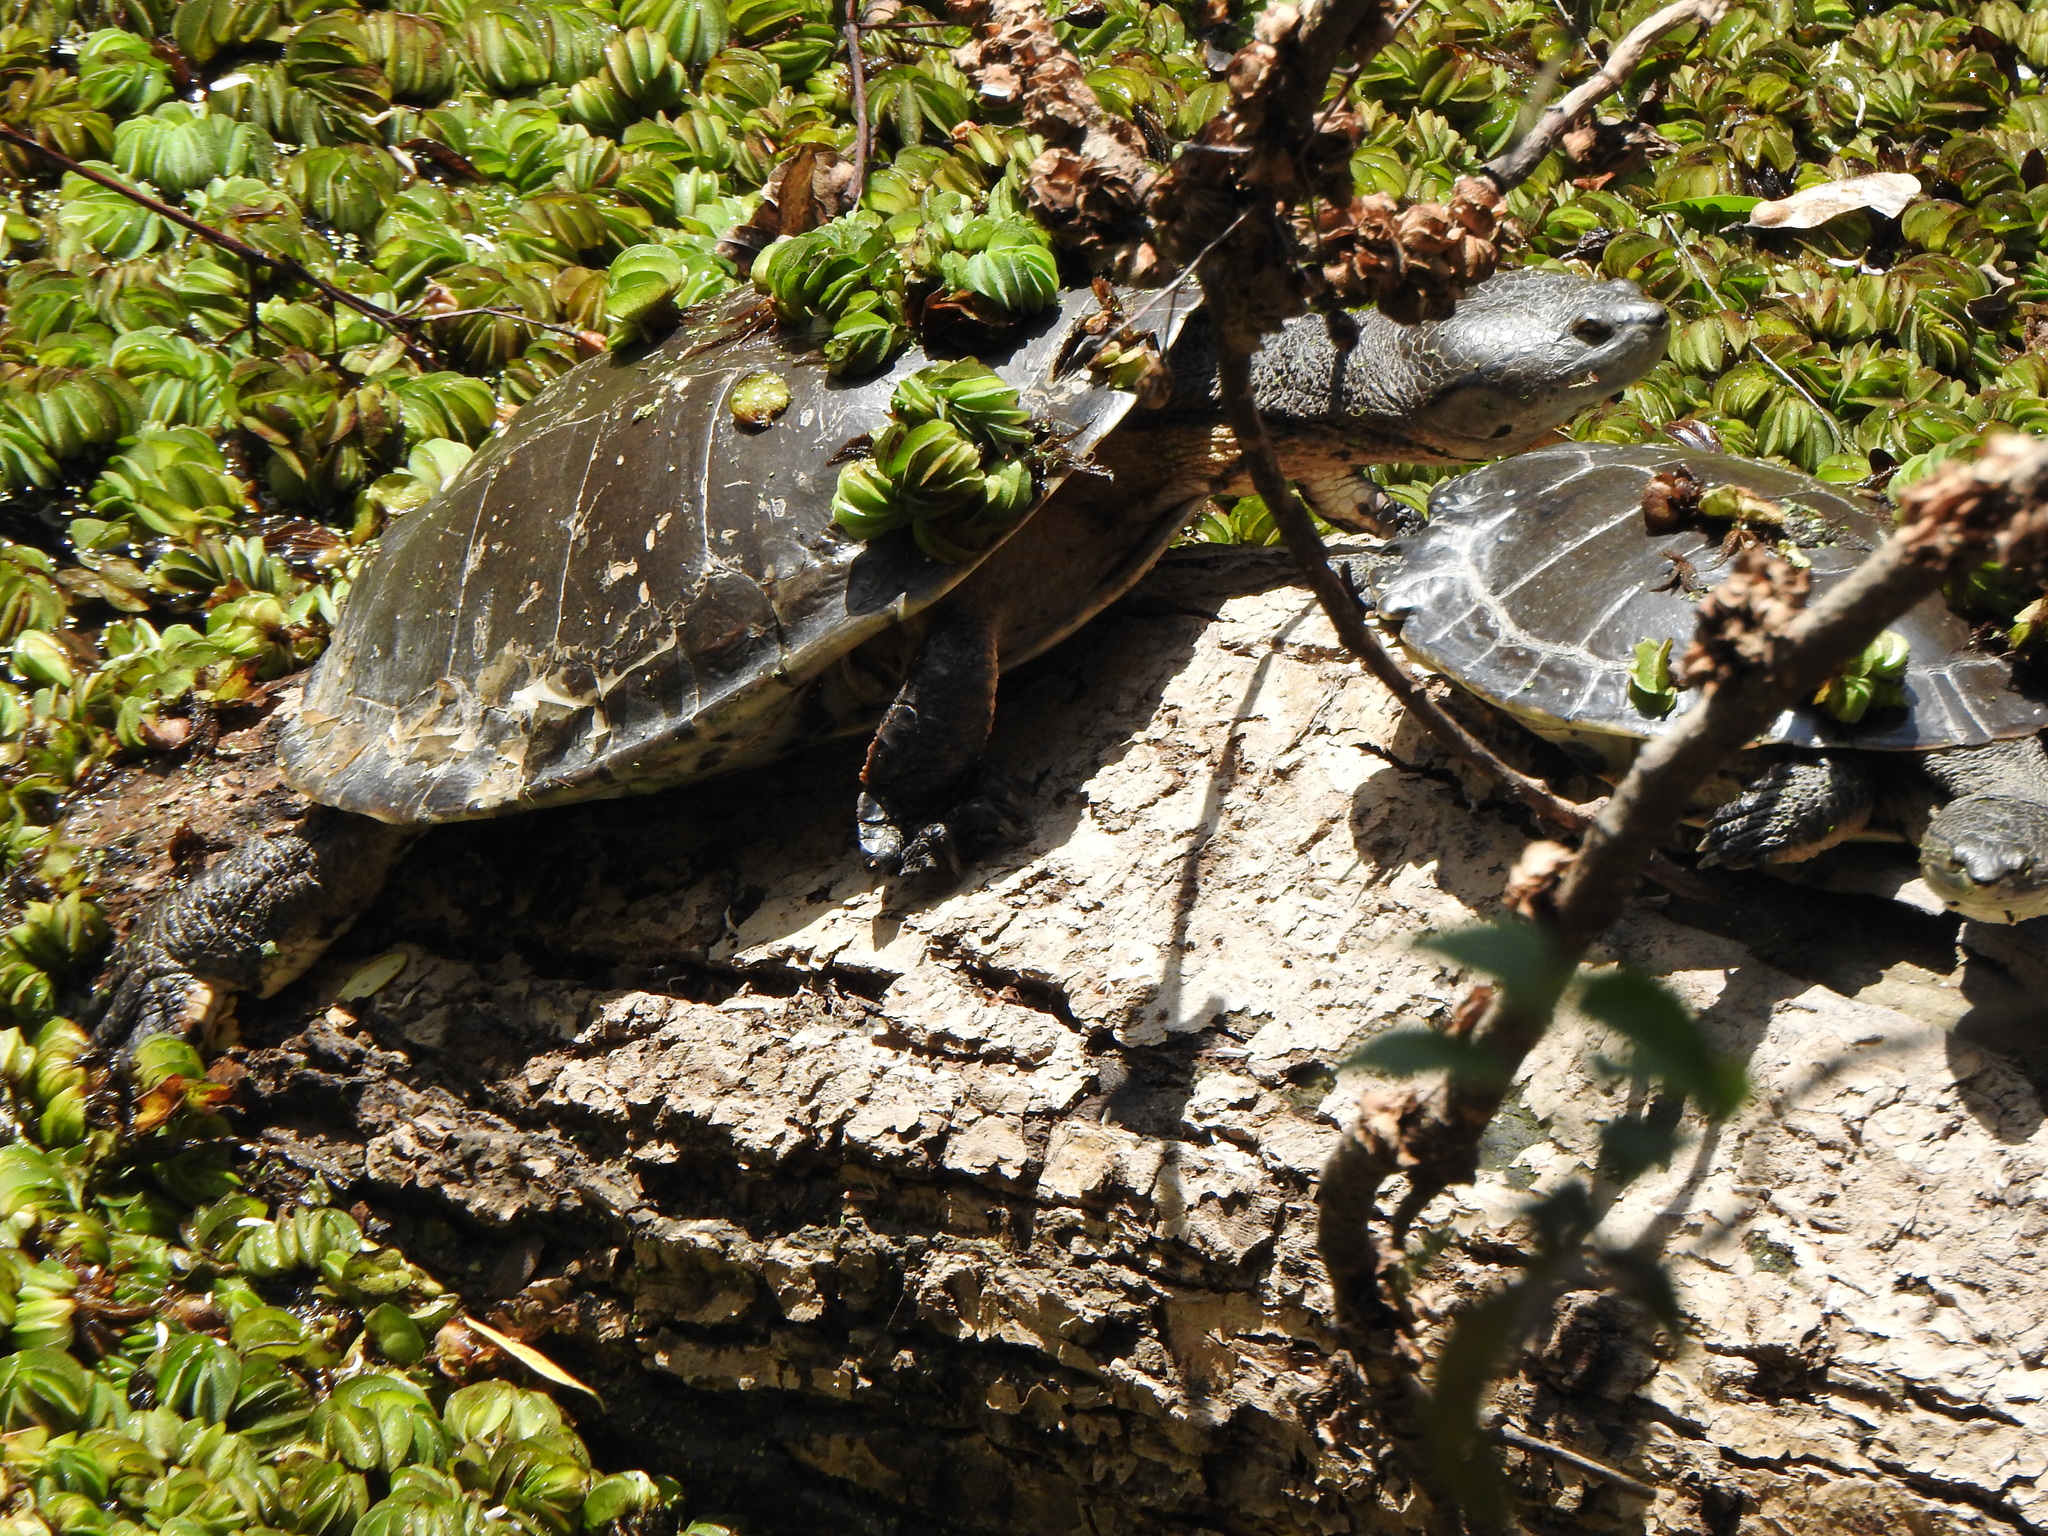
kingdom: Animalia
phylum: Chordata
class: Testudines
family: Chelidae
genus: Phrynops
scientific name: Phrynops hilarii
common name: Side-necked turtle of saint hillaire
